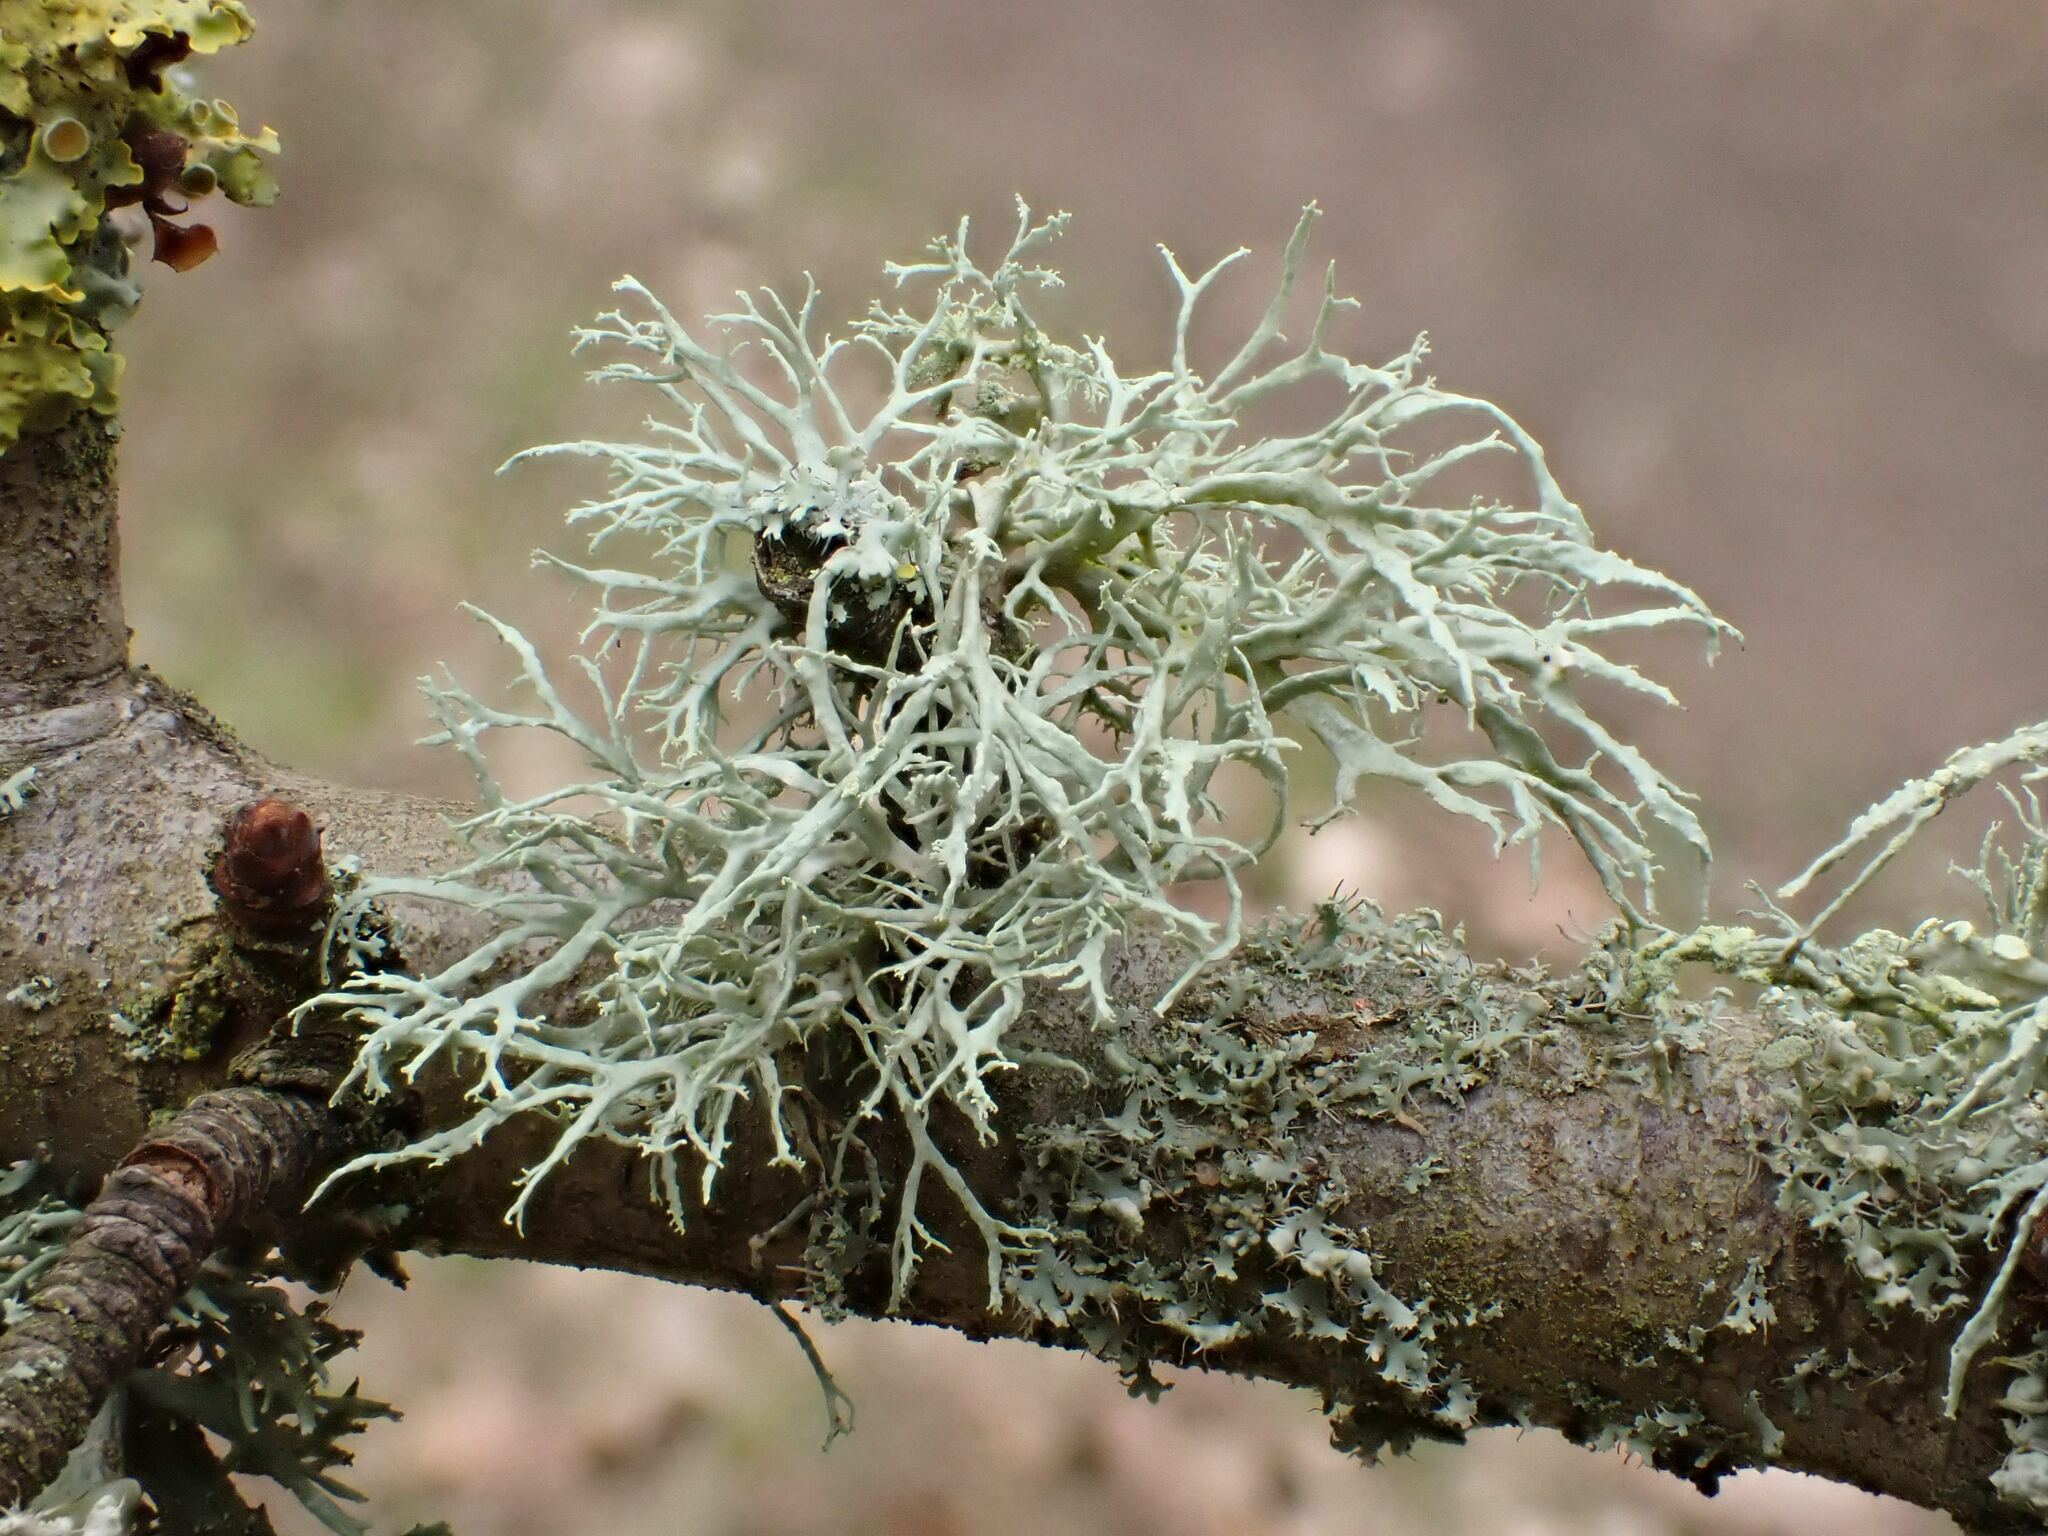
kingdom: Fungi
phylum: Ascomycota
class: Lecanoromycetes
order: Lecanorales
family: Ramalinaceae
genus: Ramalina
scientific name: Ramalina farinacea
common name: Farinose cartilage lichen
